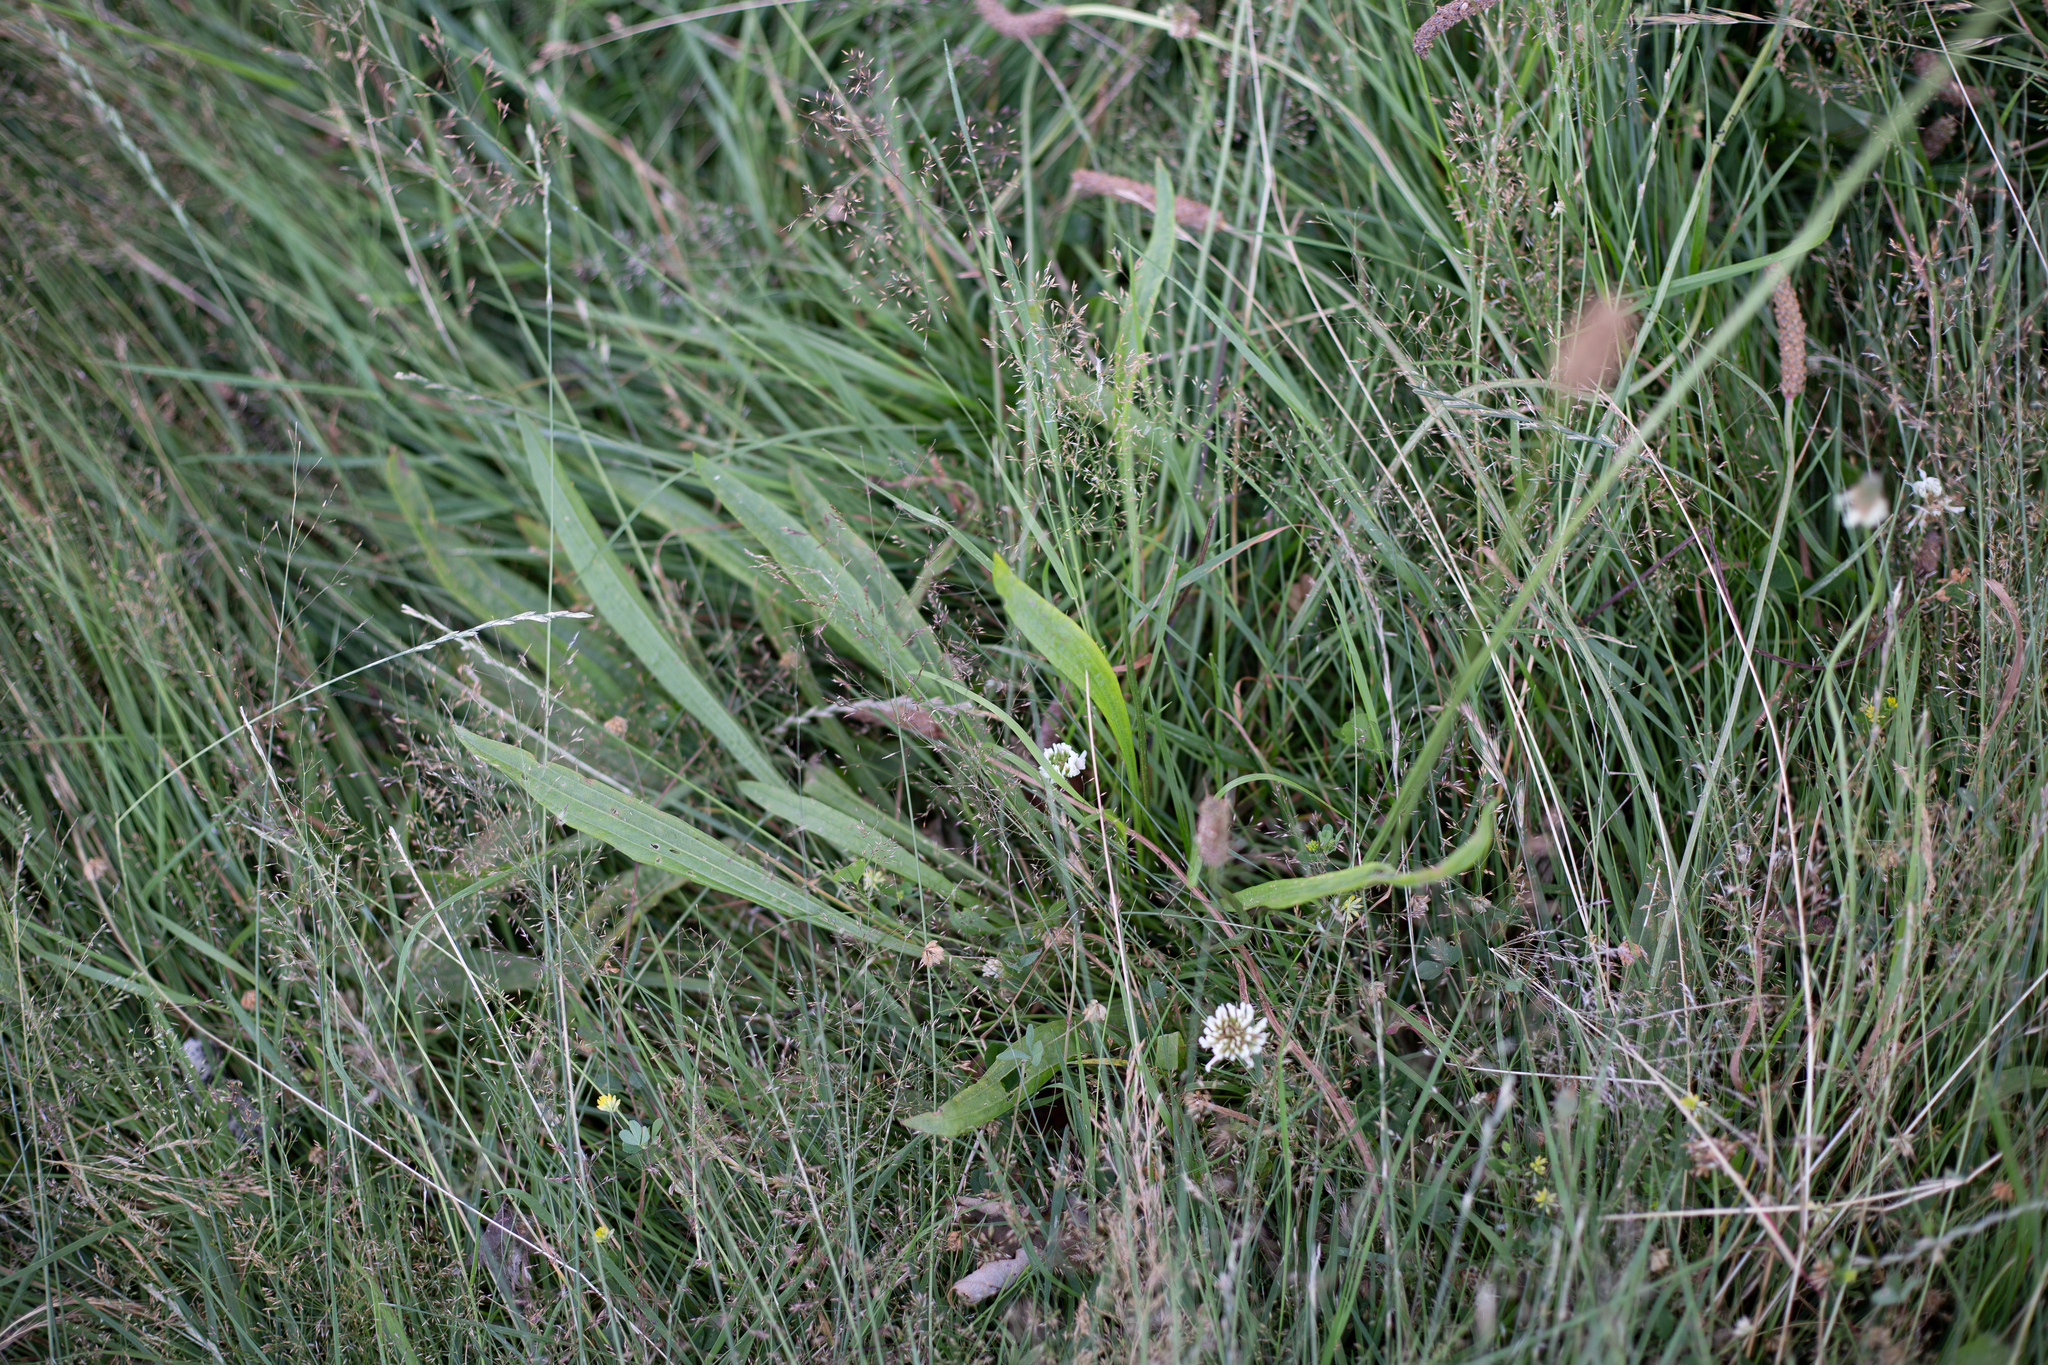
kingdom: Plantae
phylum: Tracheophyta
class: Magnoliopsida
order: Lamiales
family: Plantaginaceae
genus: Plantago
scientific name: Plantago lanceolata
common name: Ribwort plantain
